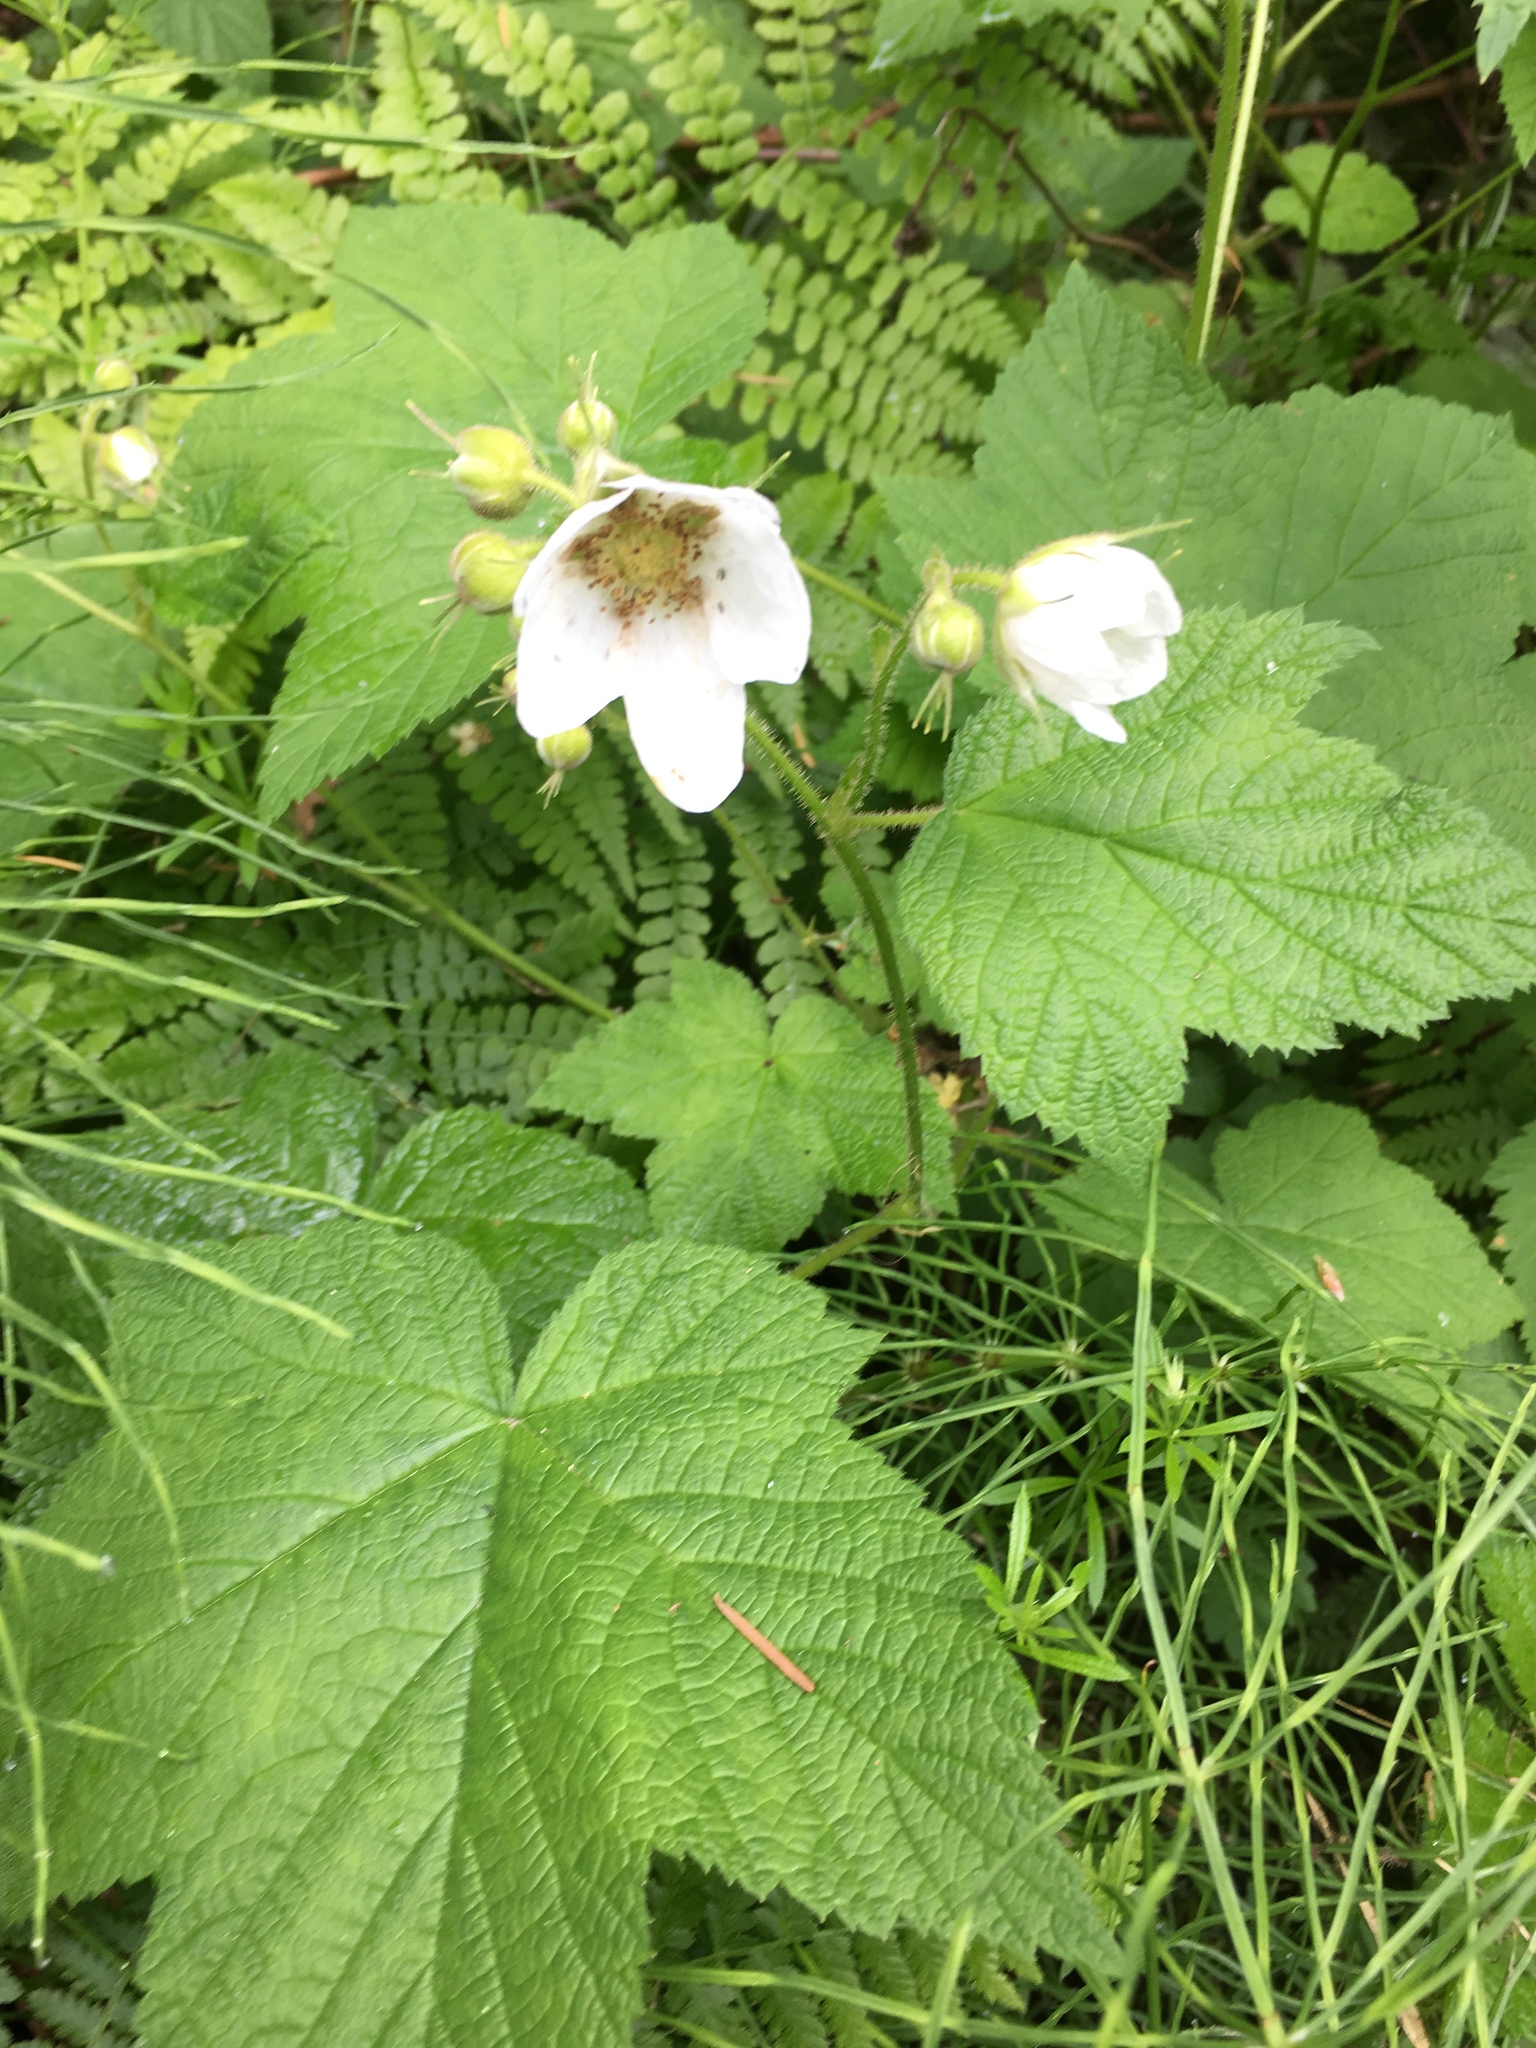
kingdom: Plantae
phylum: Tracheophyta
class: Magnoliopsida
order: Rosales
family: Rosaceae
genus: Rubus
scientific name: Rubus parviflorus
